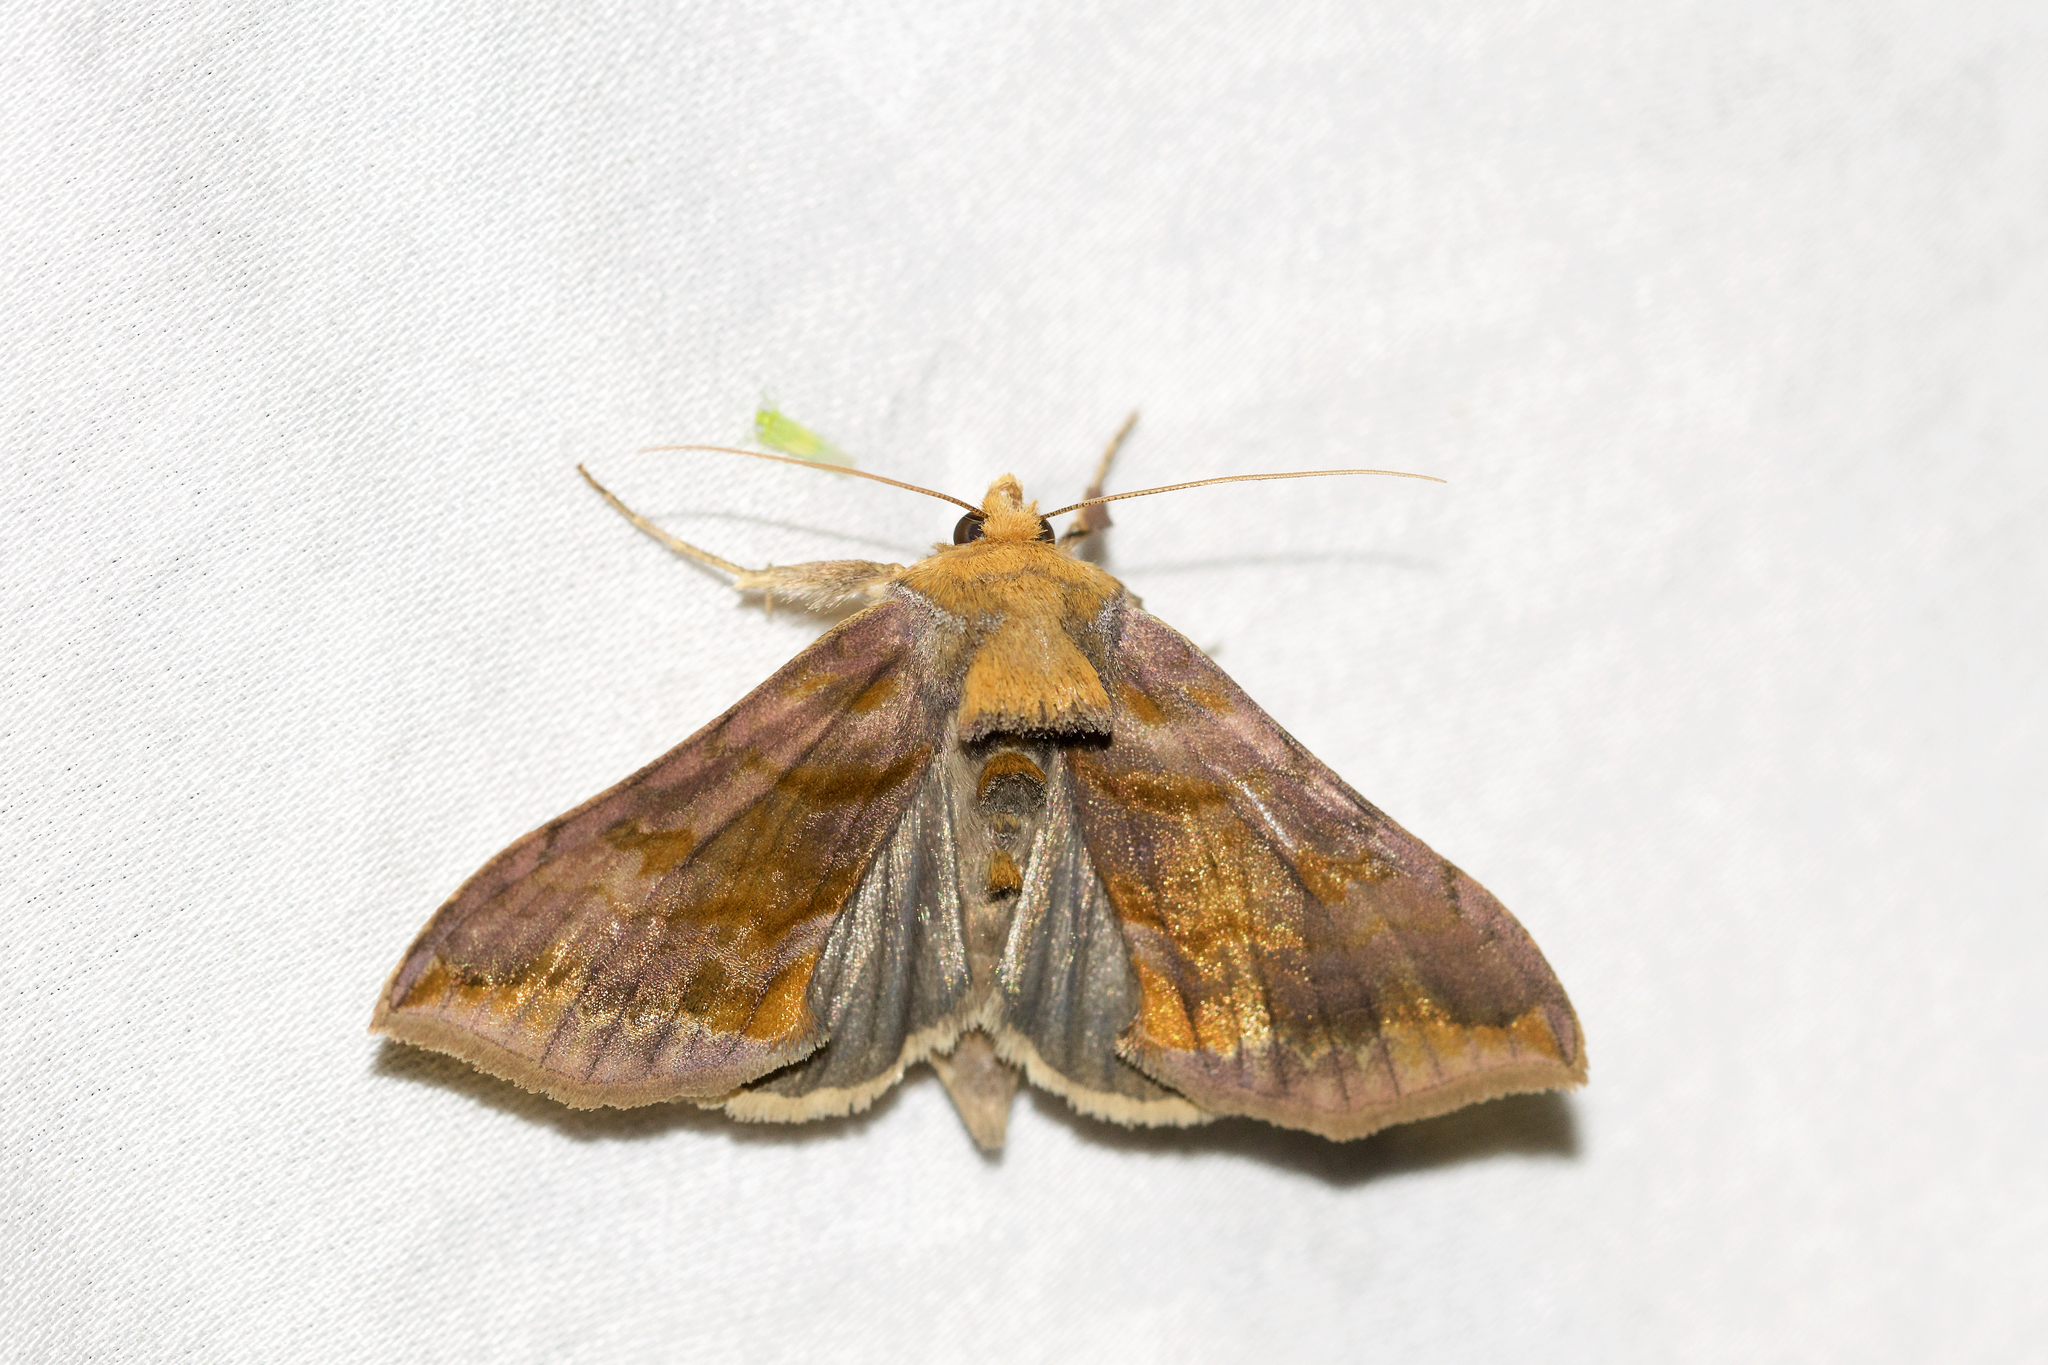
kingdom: Animalia
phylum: Arthropoda
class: Insecta
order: Lepidoptera
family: Noctuidae
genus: Allagrapha
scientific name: Allagrapha aerea
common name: Unspotted looper moth
